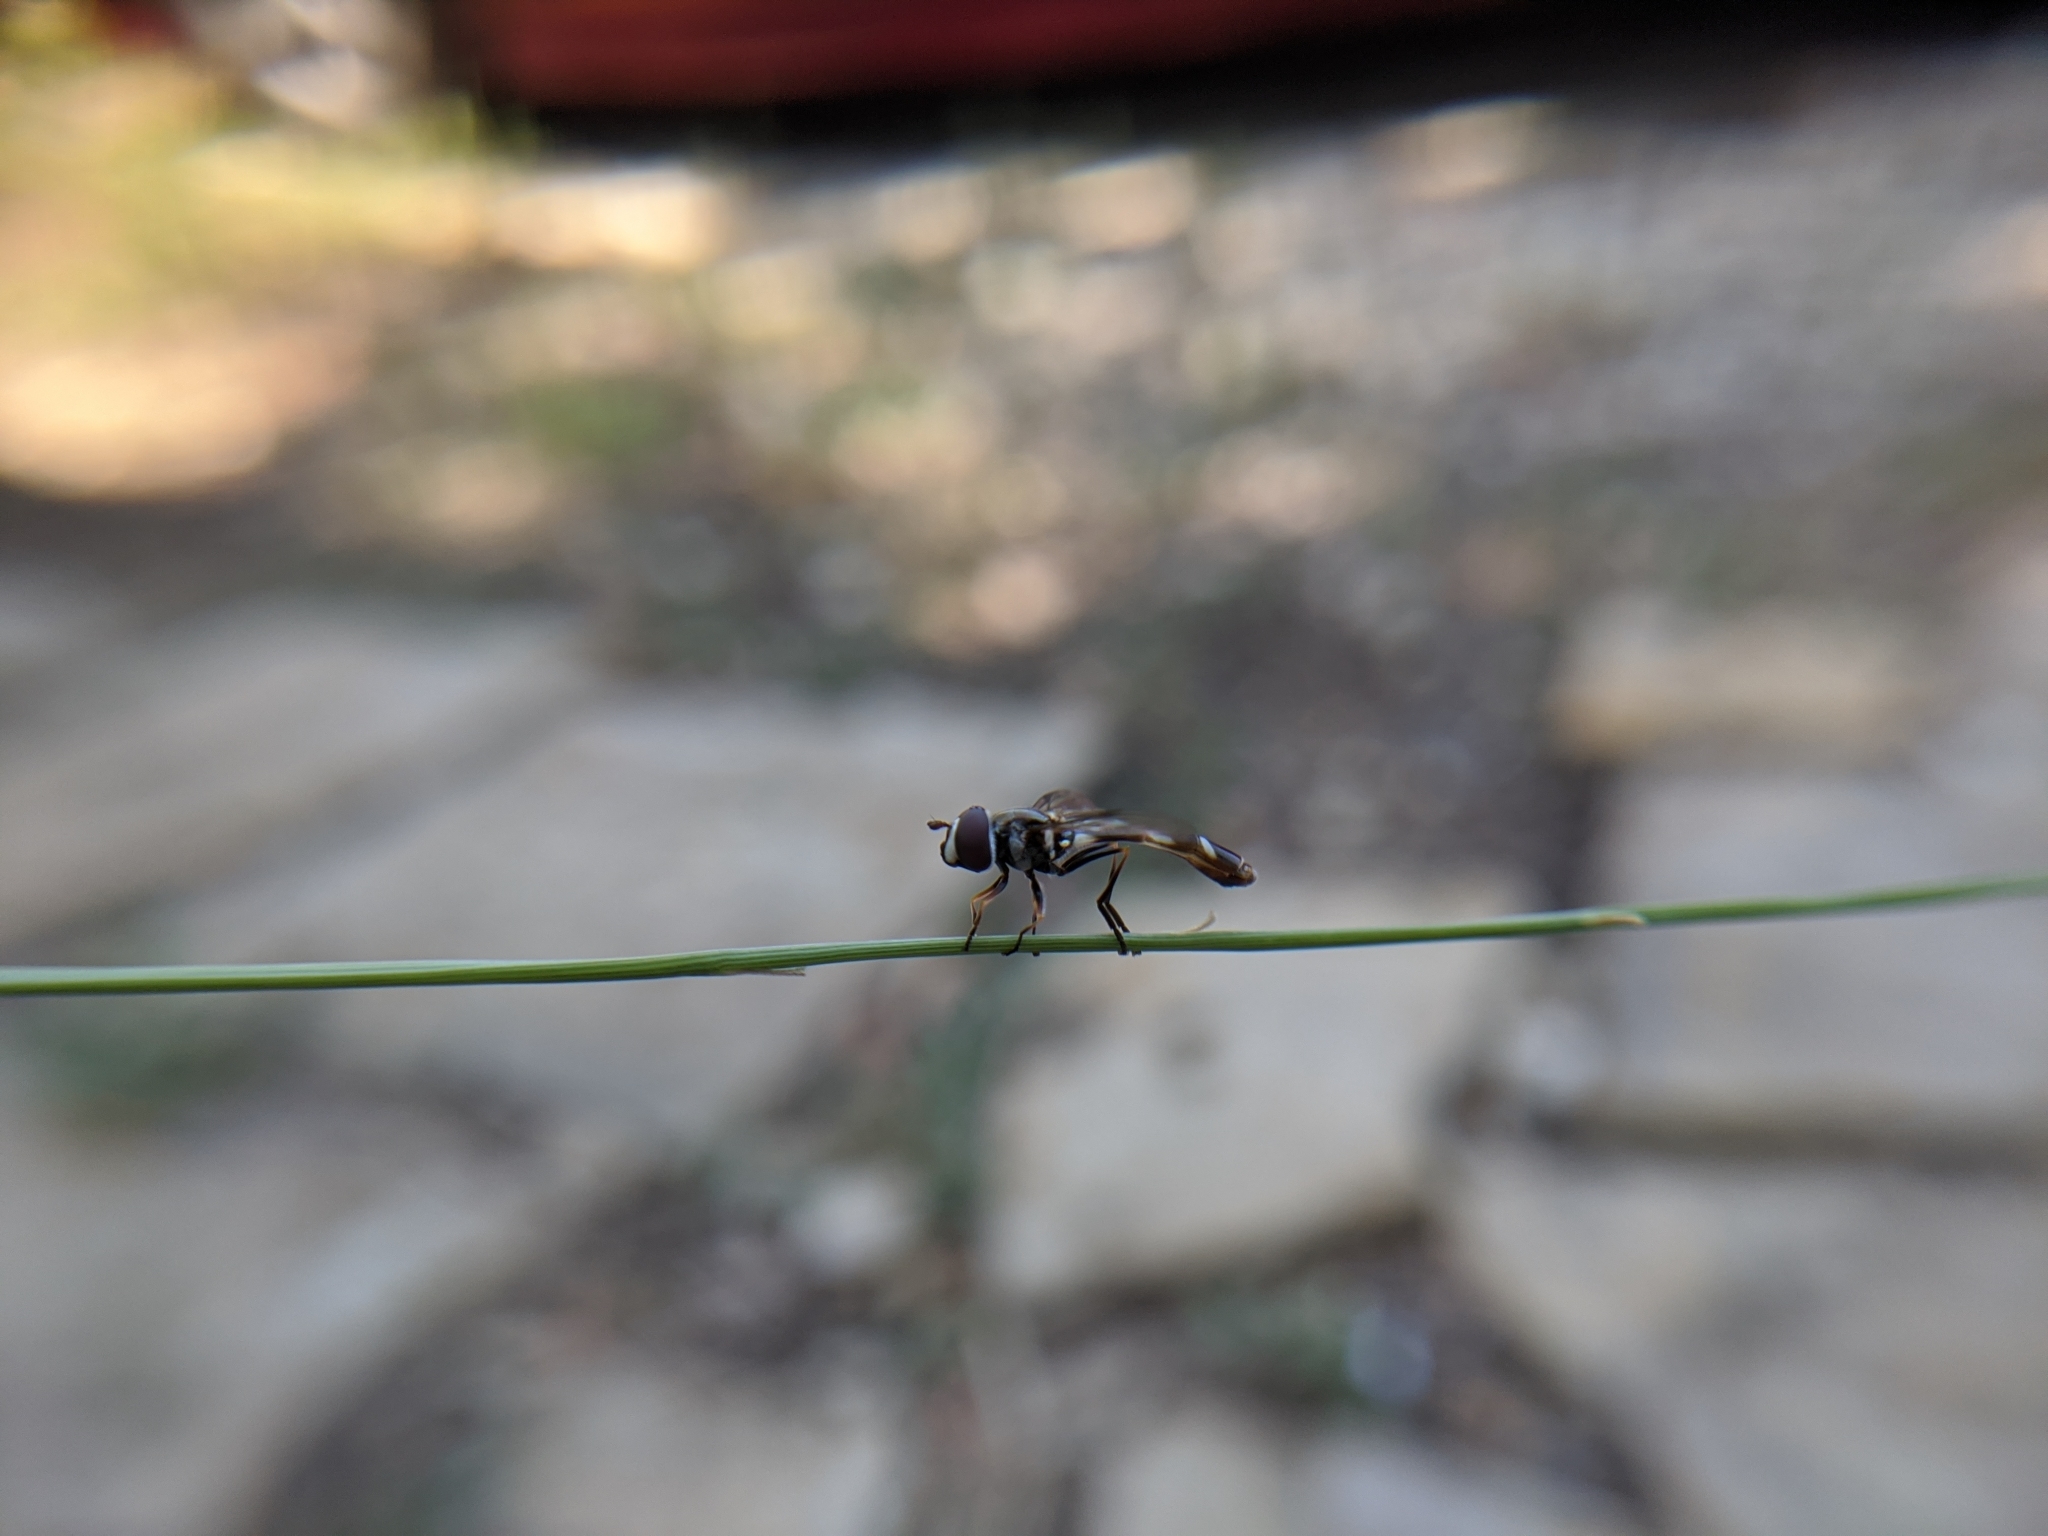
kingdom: Animalia
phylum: Arthropoda
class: Insecta
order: Diptera
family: Syrphidae
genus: Dioprosopa
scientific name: Dioprosopa clavatus
